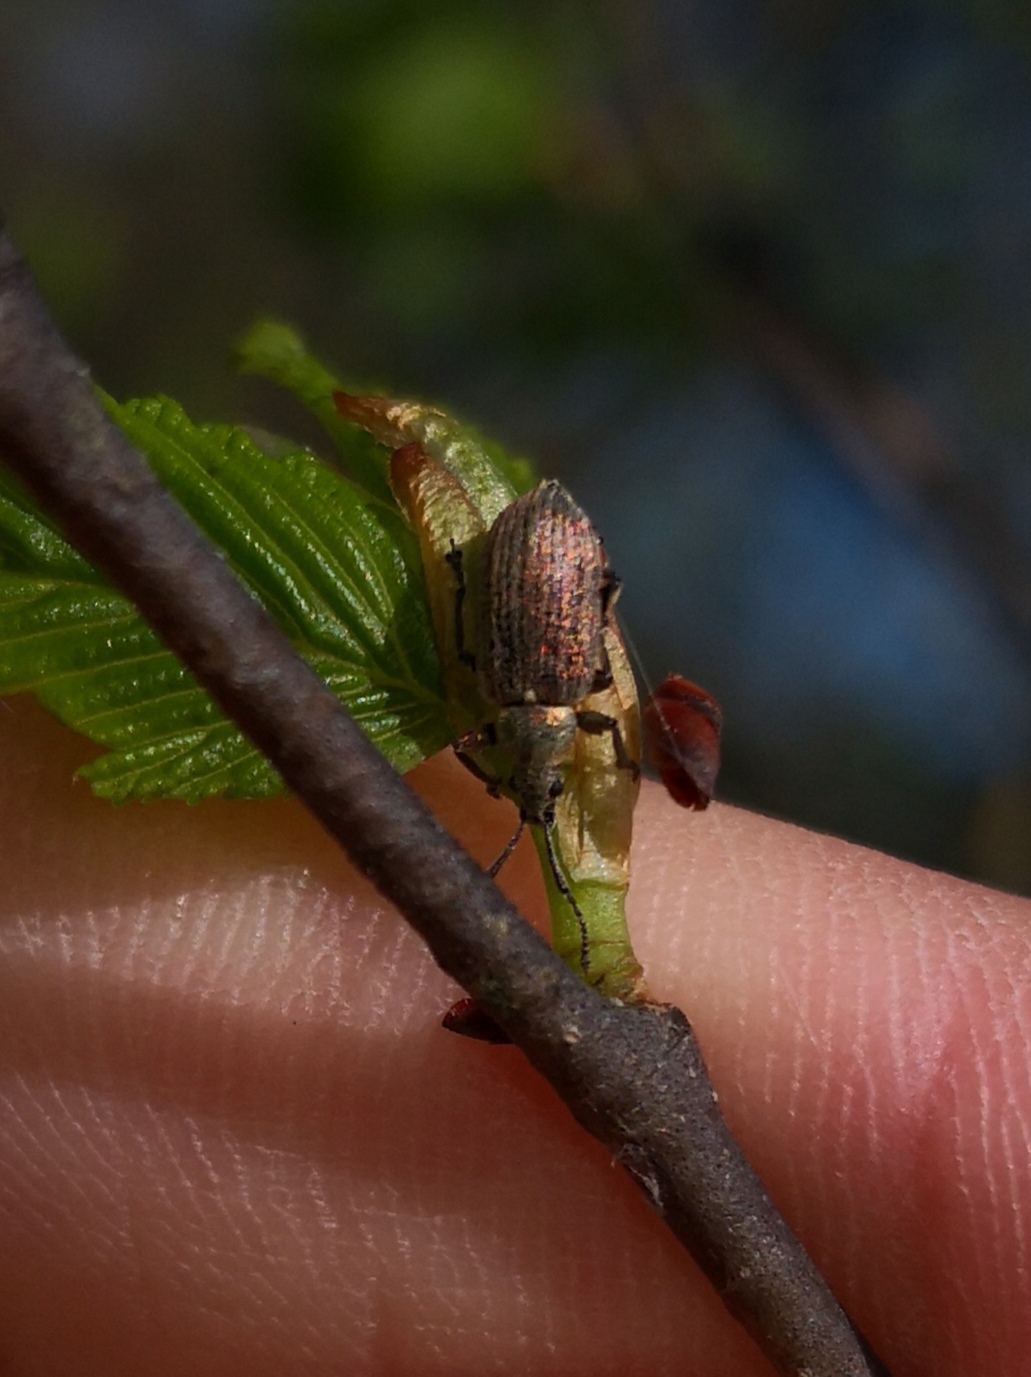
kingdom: Animalia
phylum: Arthropoda
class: Insecta
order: Coleoptera
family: Curculionidae
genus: Phyllobius
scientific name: Phyllobius pyri
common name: Common leaf weevil
